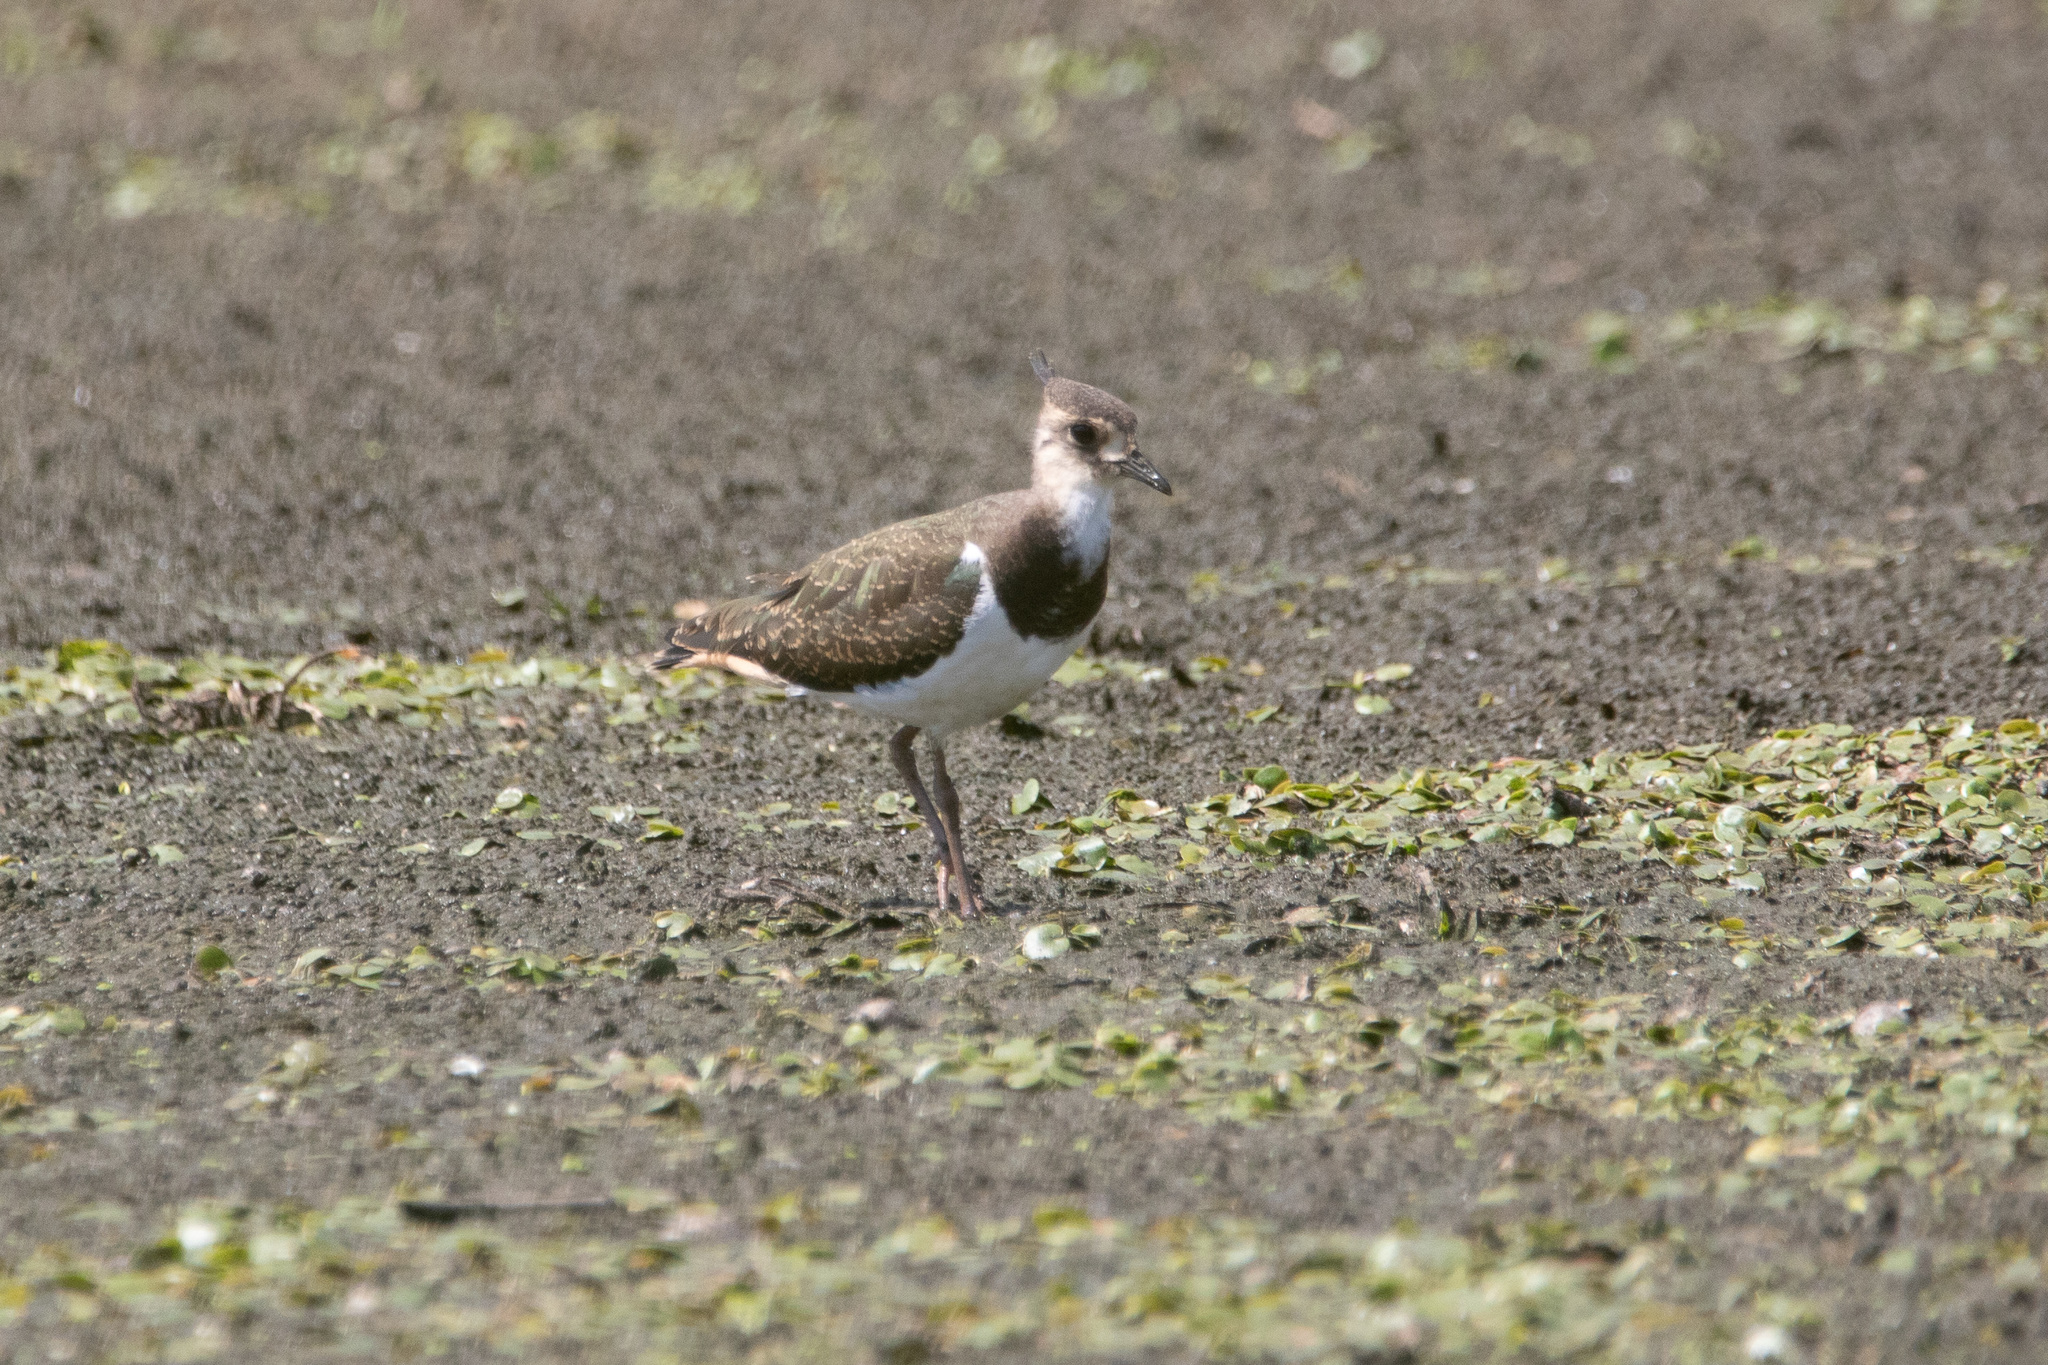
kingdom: Animalia
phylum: Chordata
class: Aves
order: Charadriiformes
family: Charadriidae
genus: Vanellus
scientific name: Vanellus vanellus
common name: Northern lapwing
